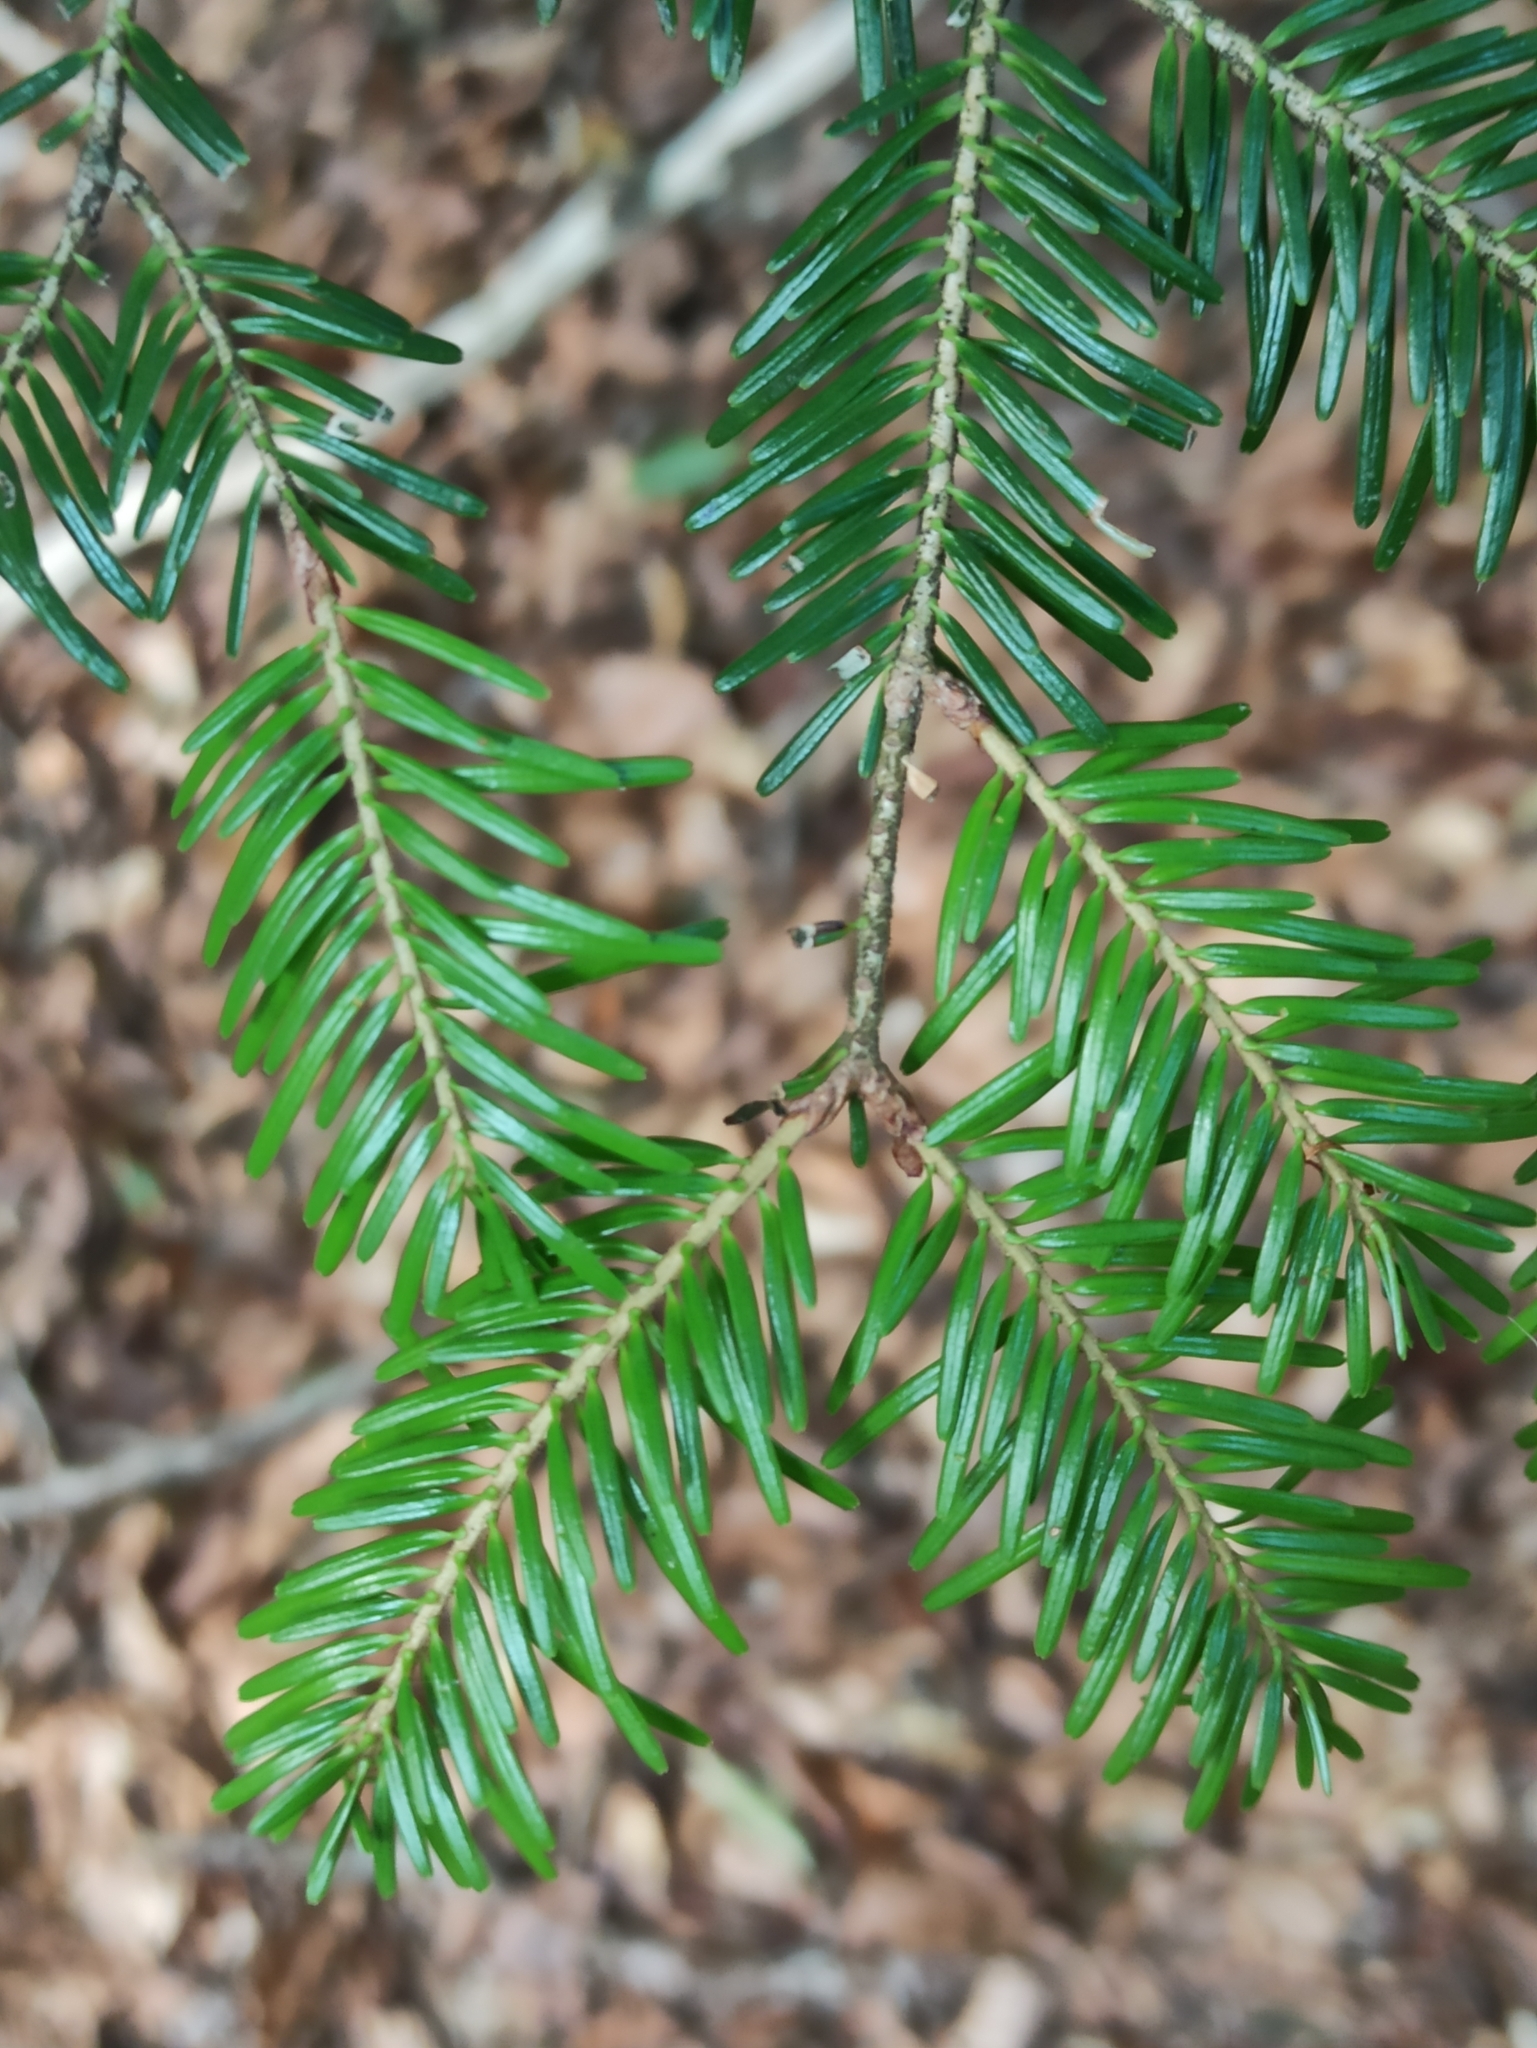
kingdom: Plantae
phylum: Tracheophyta
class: Pinopsida
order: Pinales
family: Pinaceae
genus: Abies
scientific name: Abies alba
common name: Silver fir
